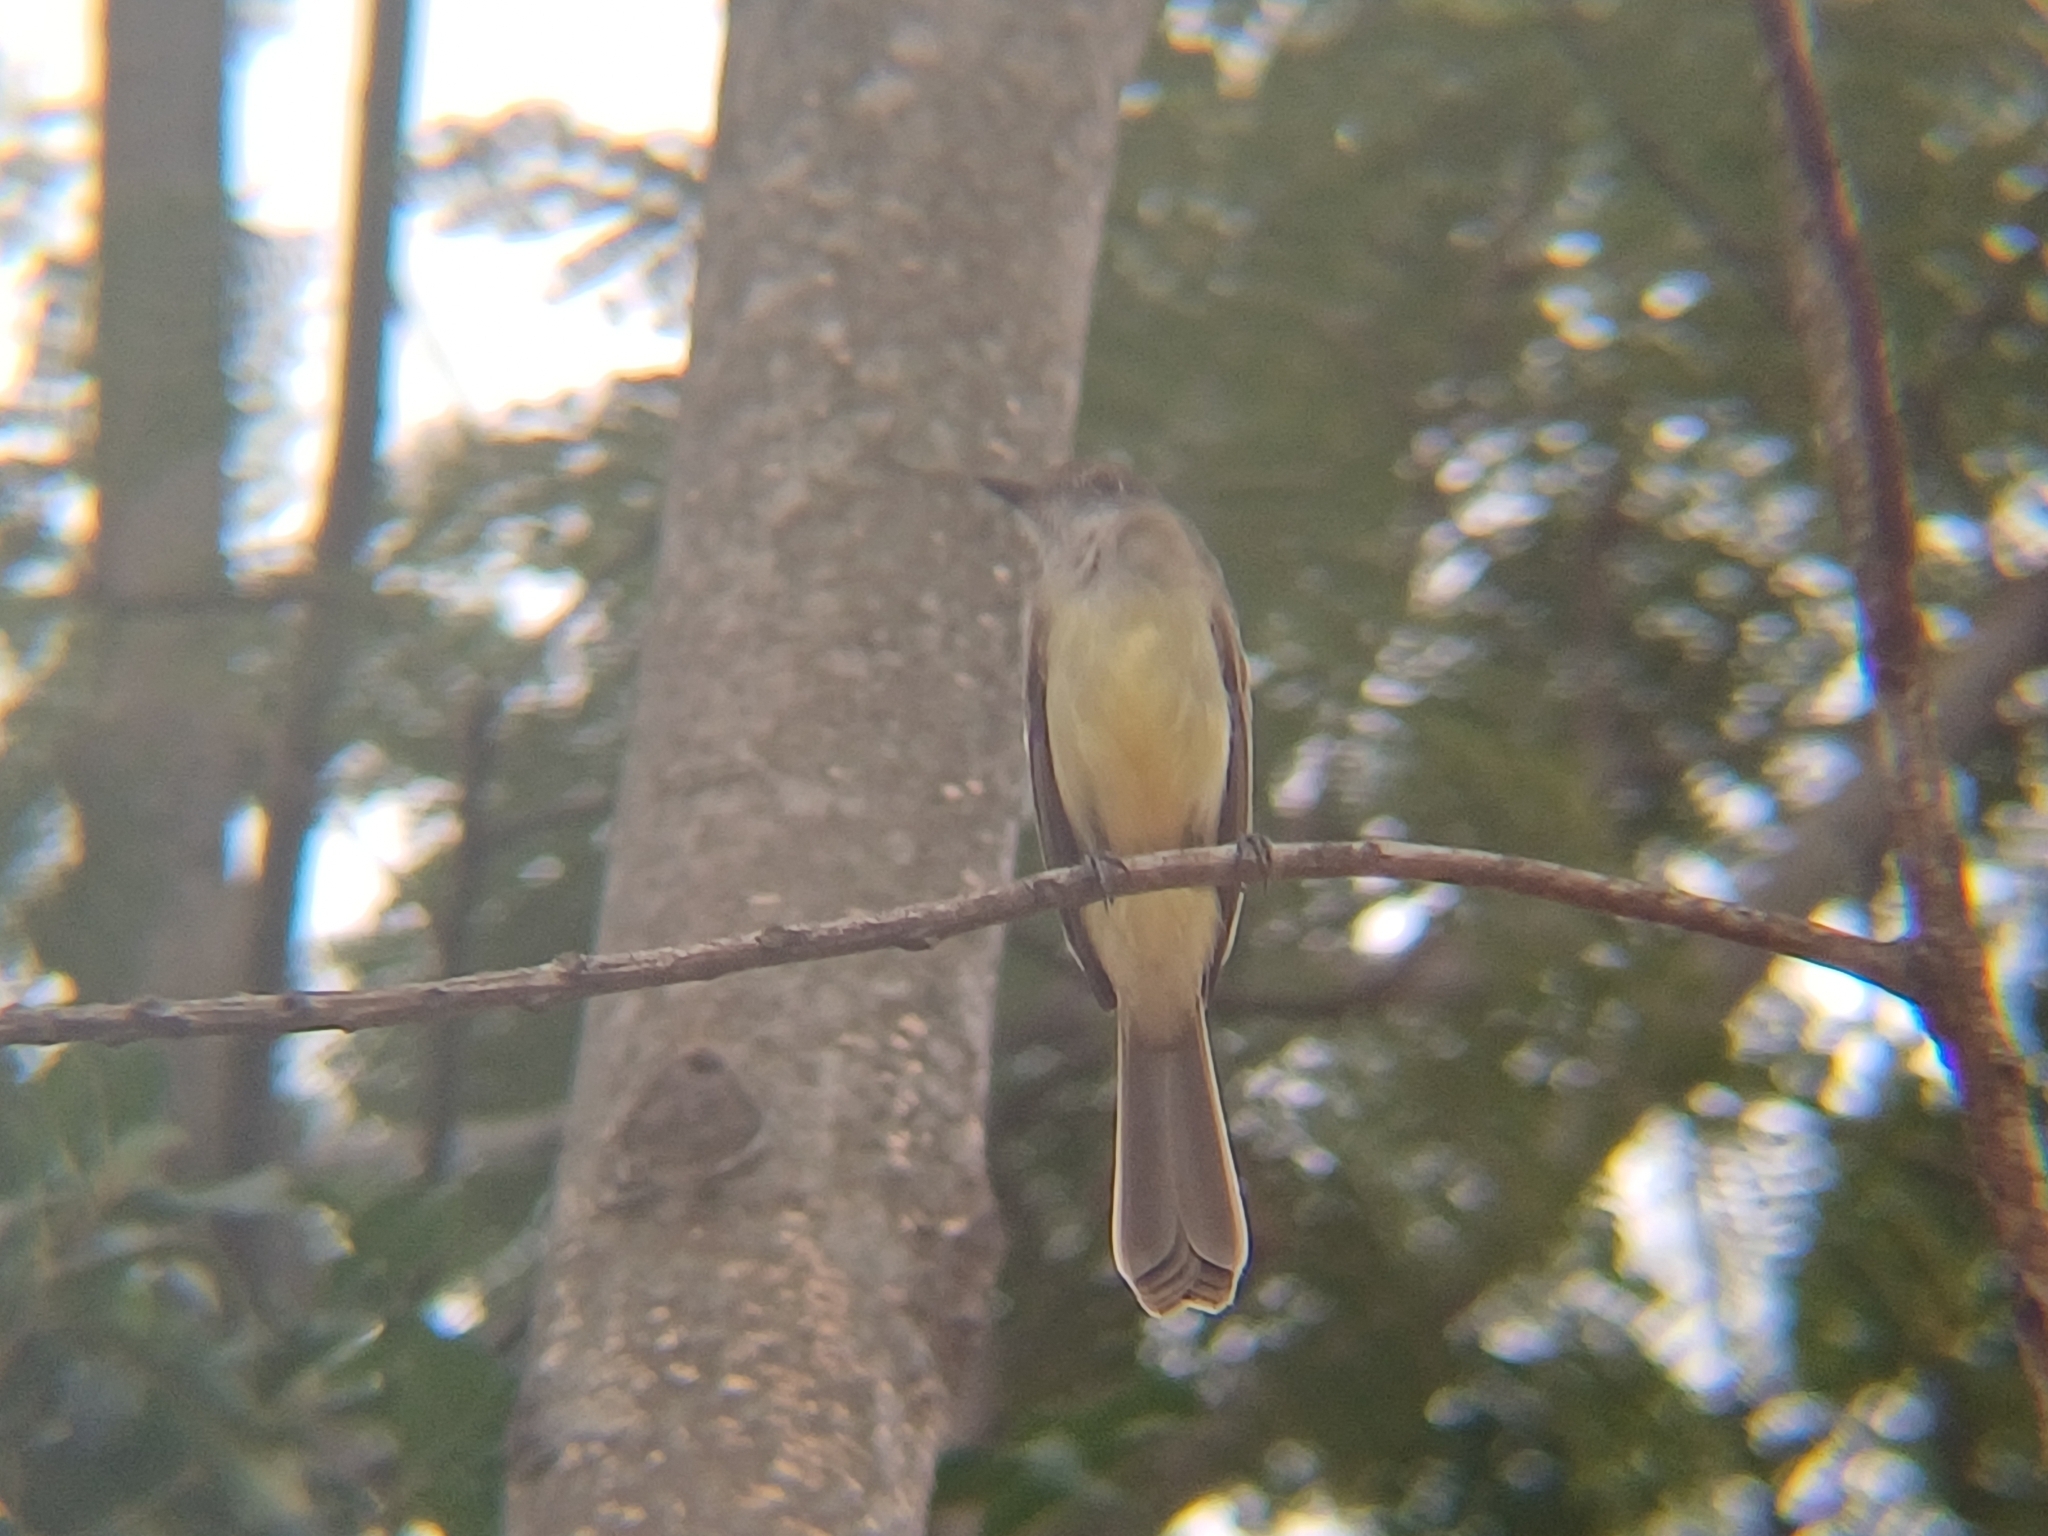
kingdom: Animalia
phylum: Chordata
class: Aves
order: Passeriformes
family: Tyrannidae
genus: Myiarchus
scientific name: Myiarchus ferox
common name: Short-crested flycatcher
